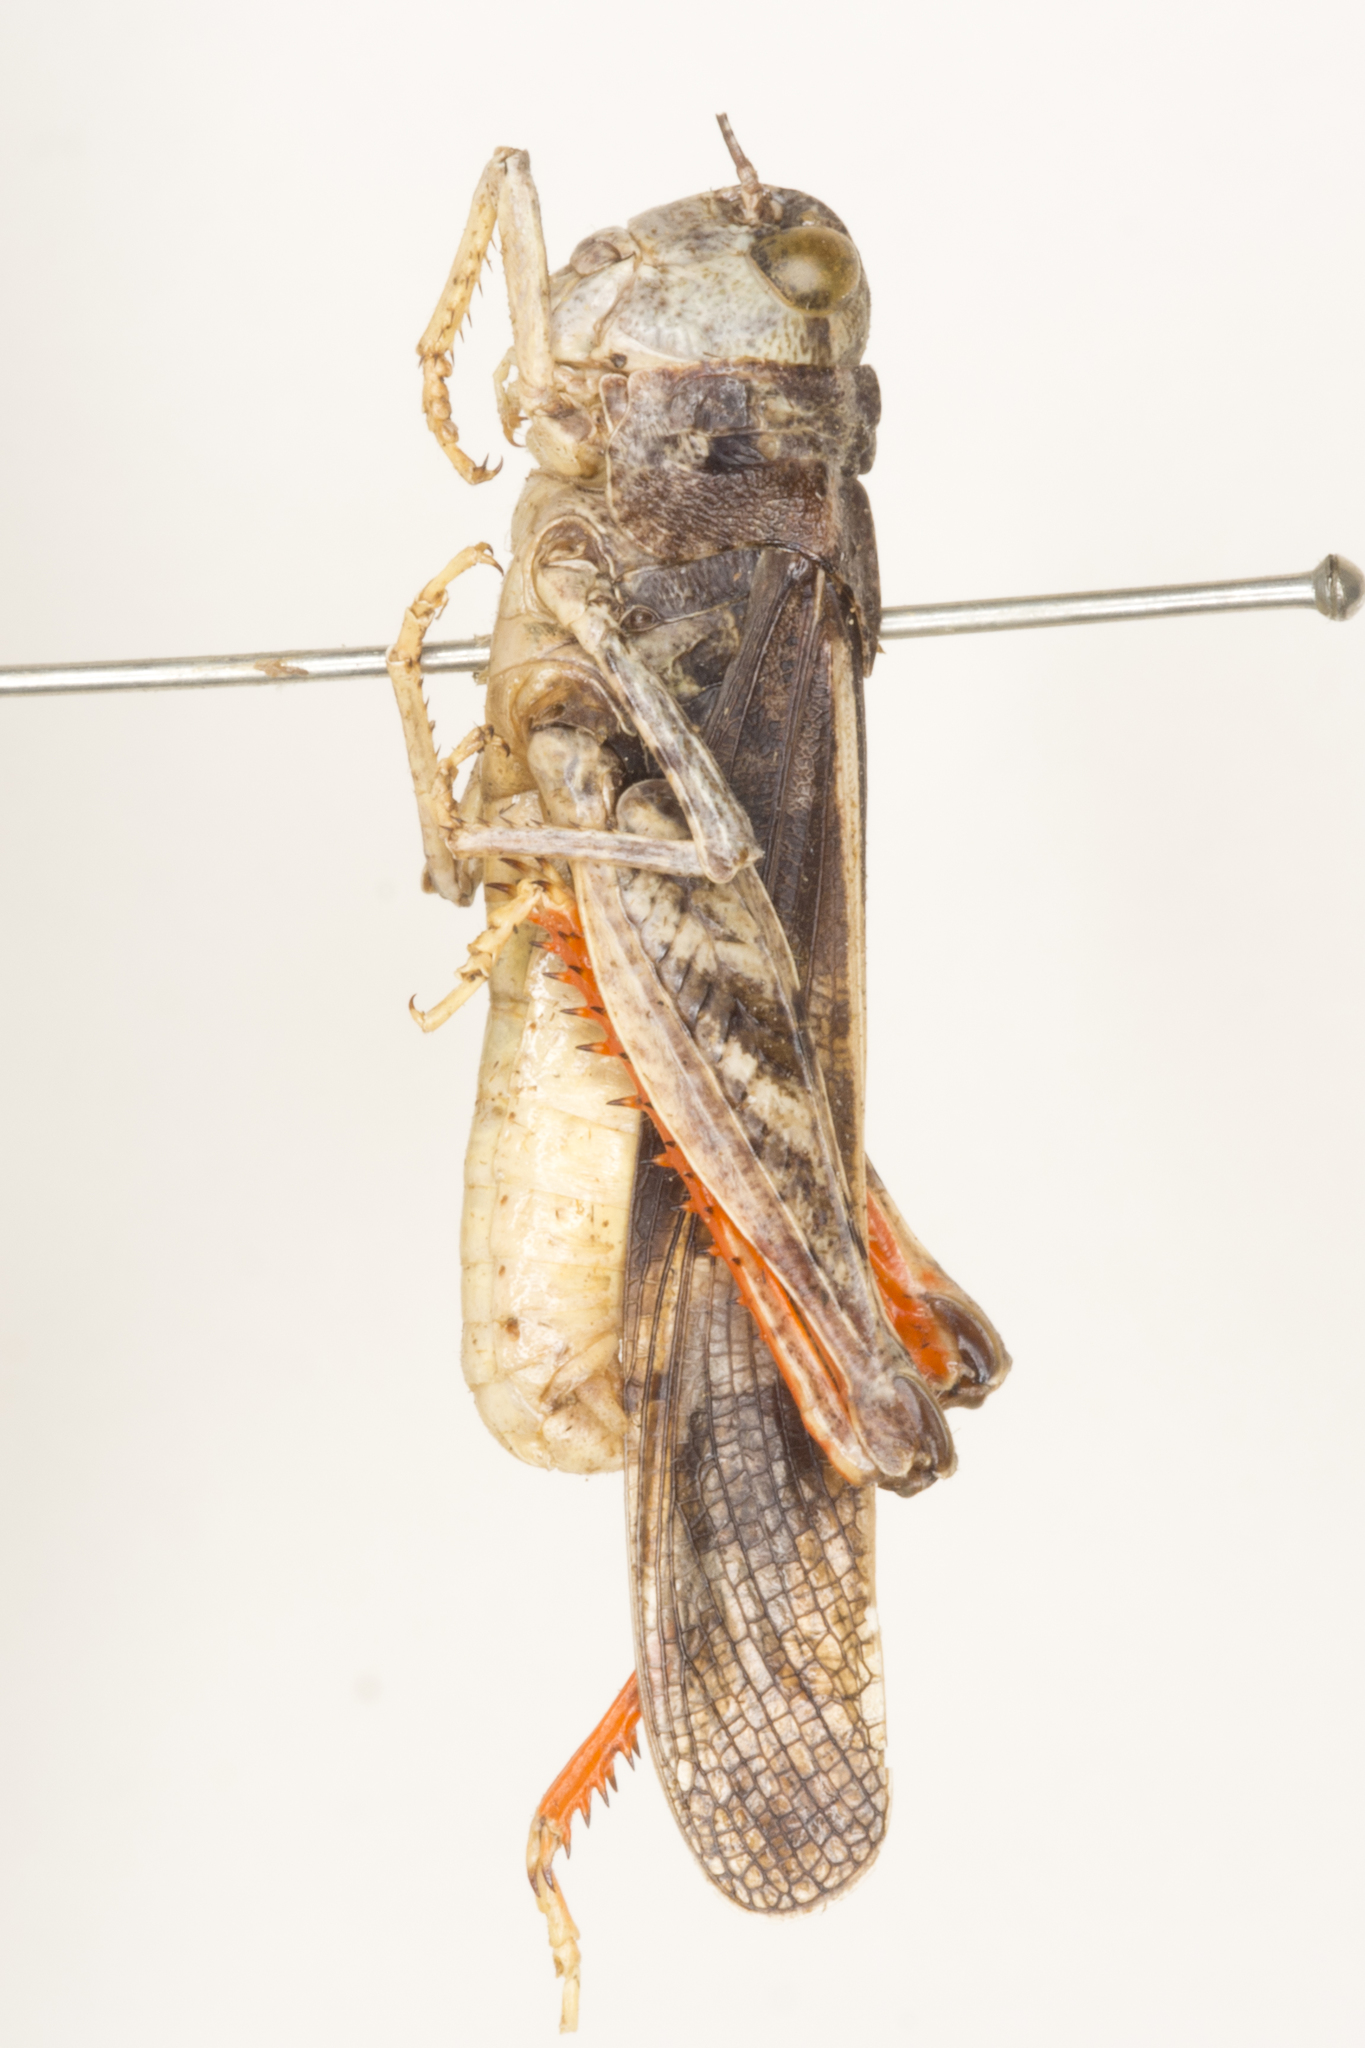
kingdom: Animalia
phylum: Arthropoda
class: Insecta
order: Orthoptera
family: Acrididae
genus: Cratypedes
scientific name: Cratypedes neglectus
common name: Pronotal range grasshopper
